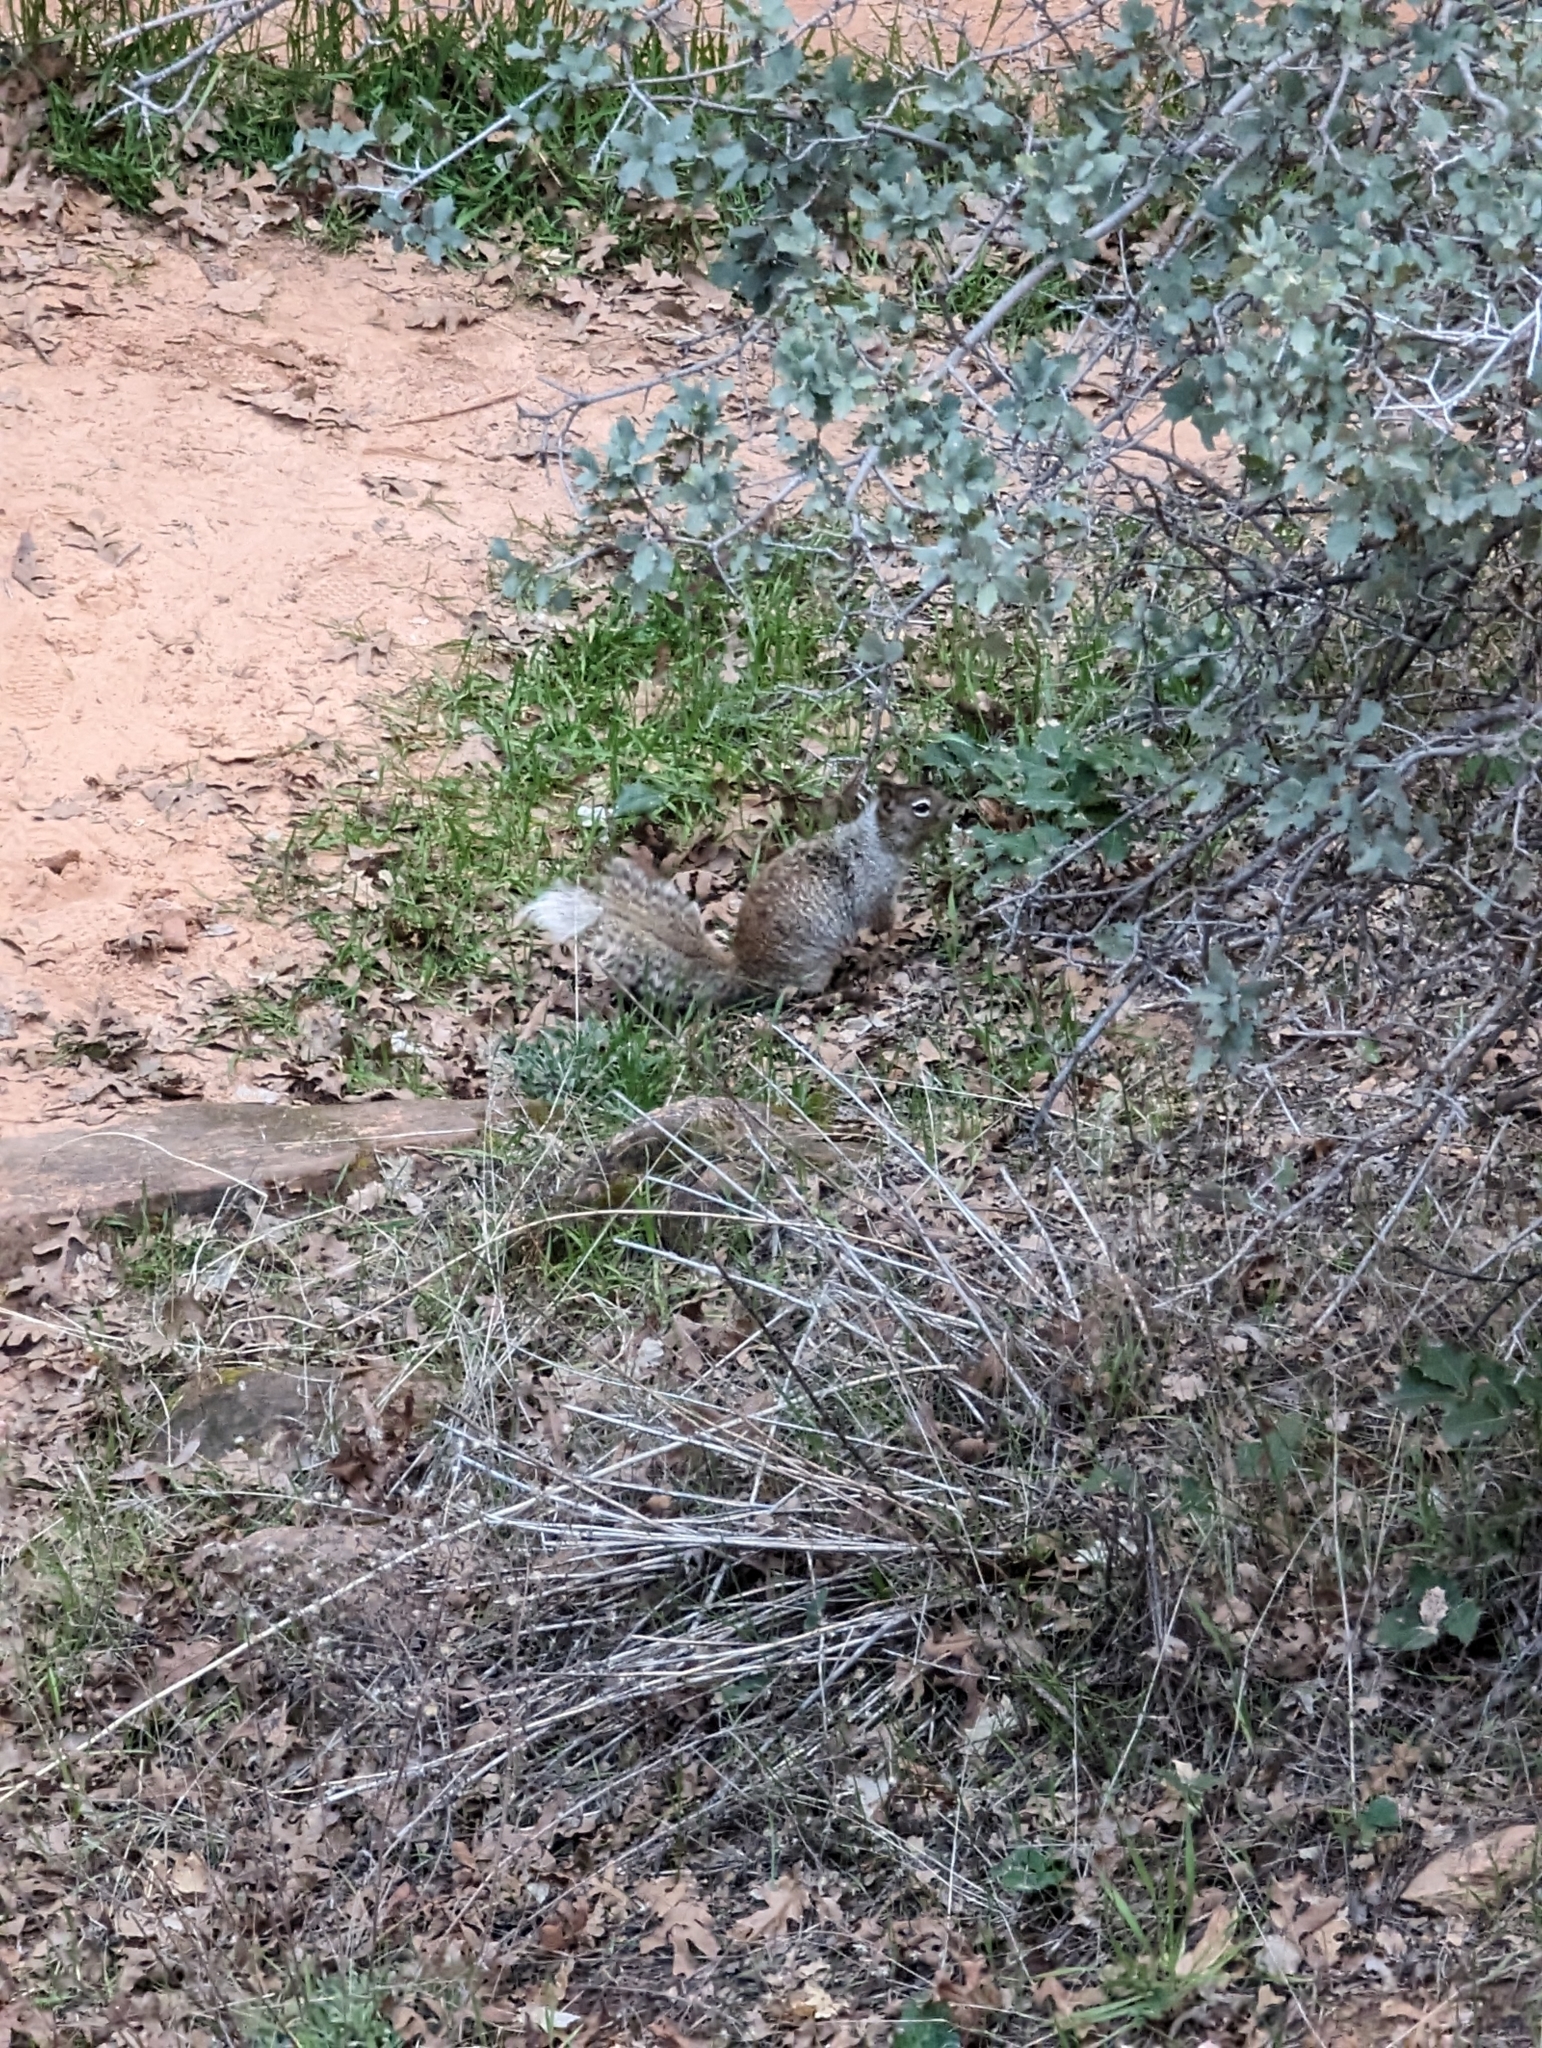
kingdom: Animalia
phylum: Chordata
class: Mammalia
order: Rodentia
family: Sciuridae
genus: Otospermophilus
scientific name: Otospermophilus variegatus
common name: Rock squirrel
